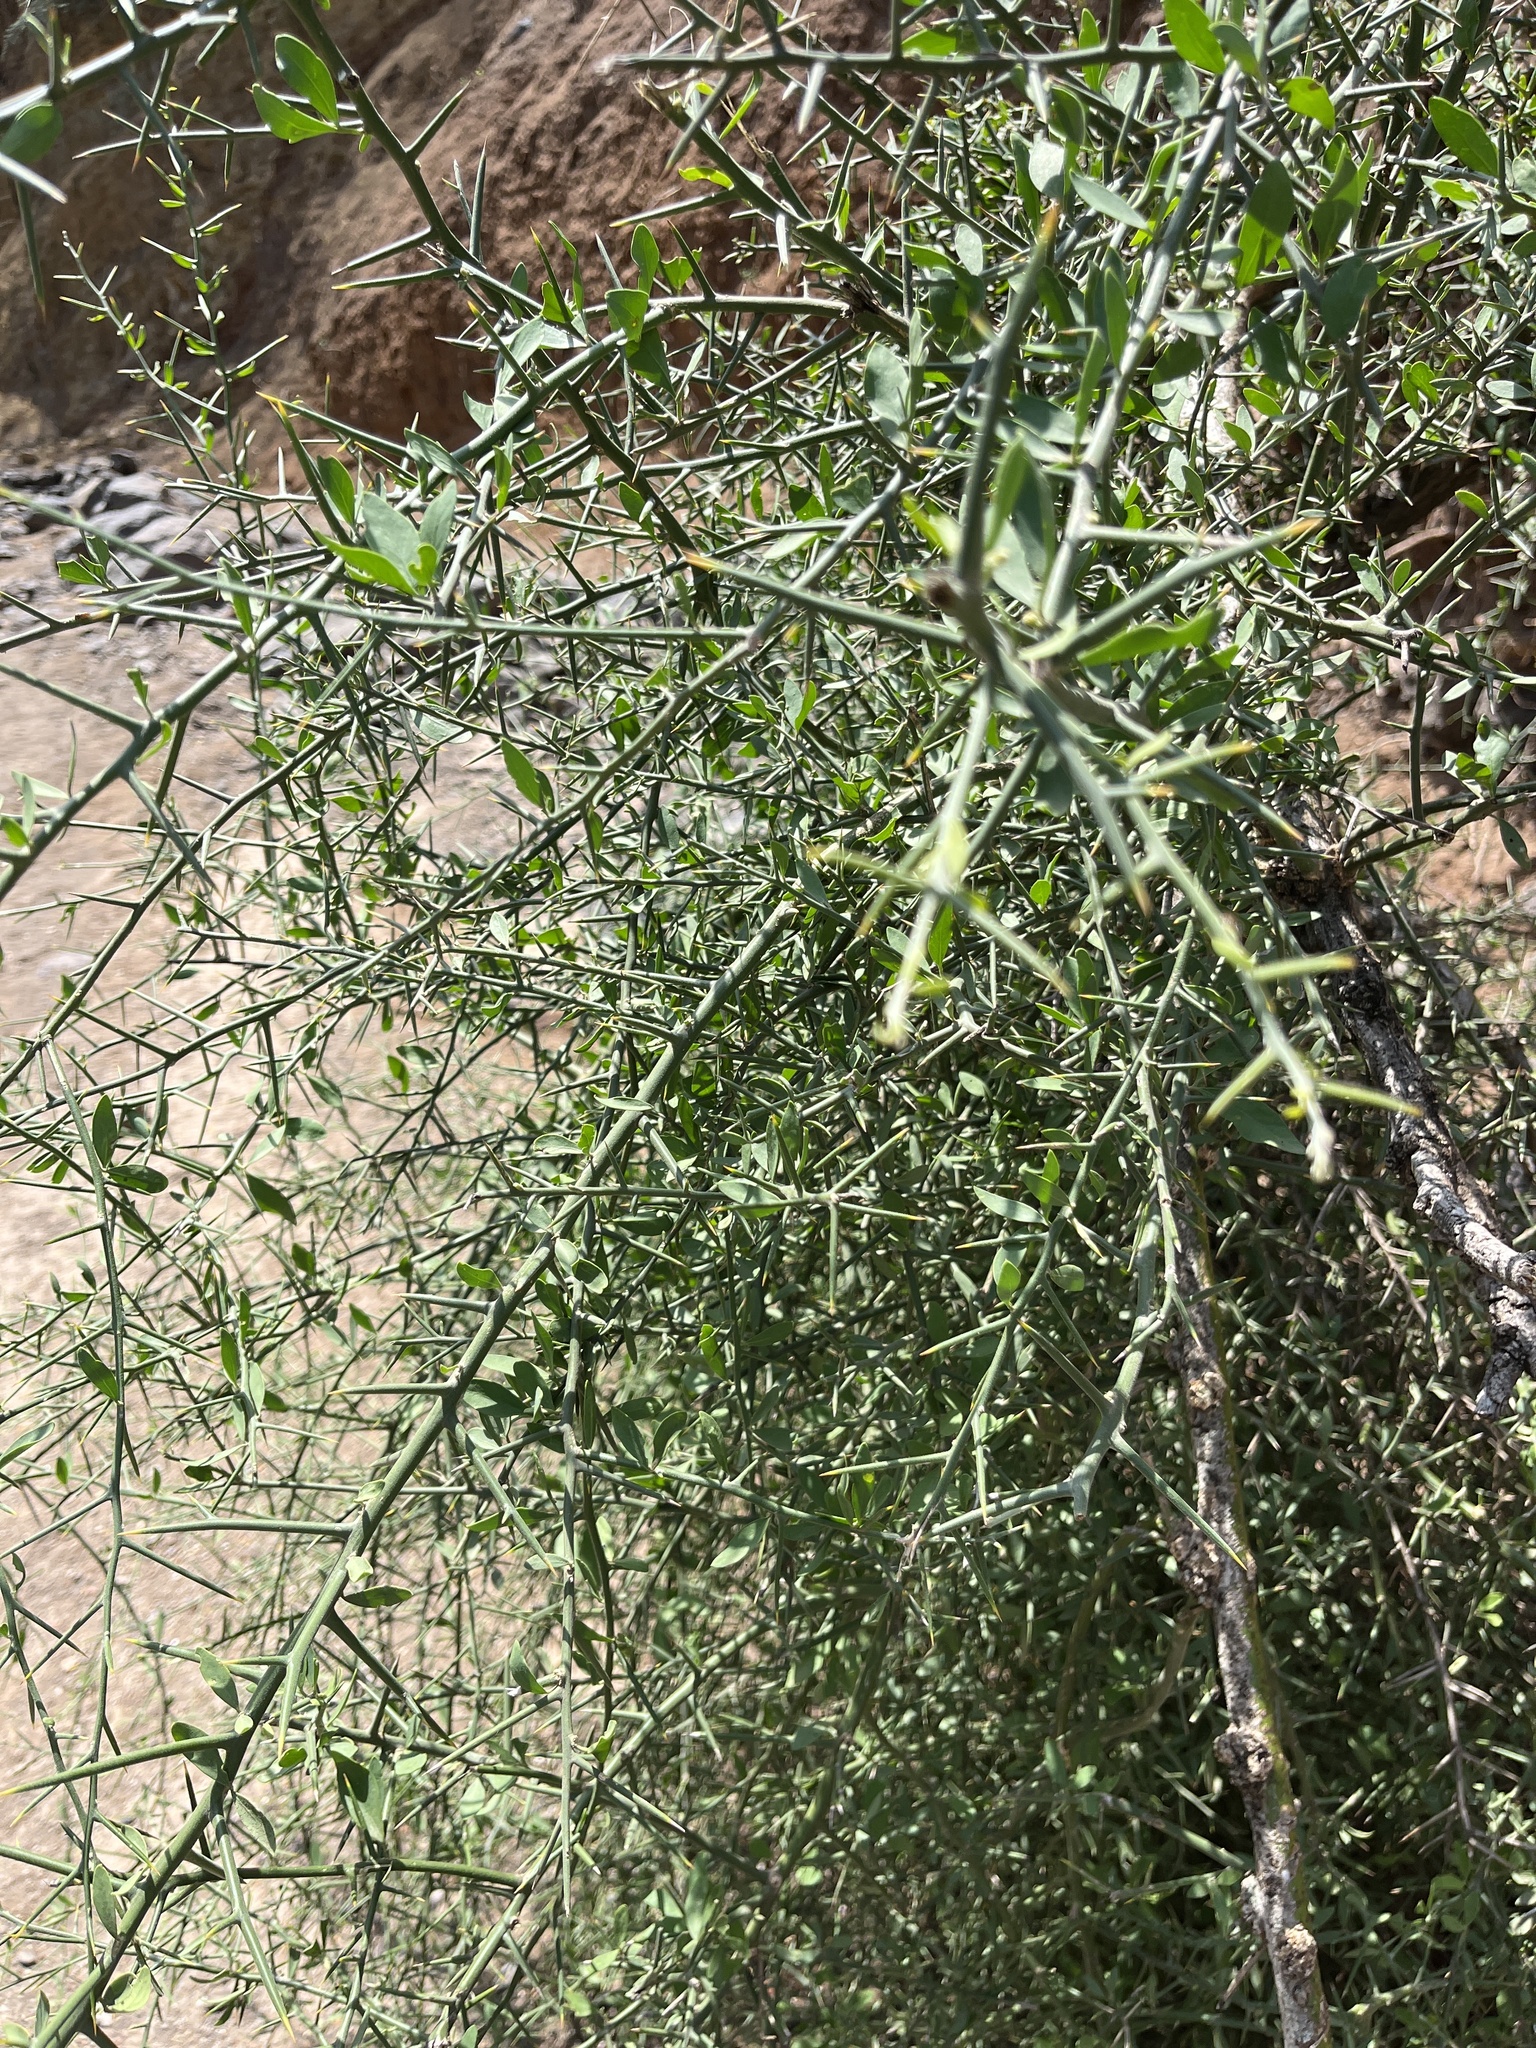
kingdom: Plantae
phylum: Tracheophyta
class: Magnoliopsida
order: Zygophyllales
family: Zygophyllaceae
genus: Balanites
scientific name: Balanites aegyptiaca
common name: Balanites
